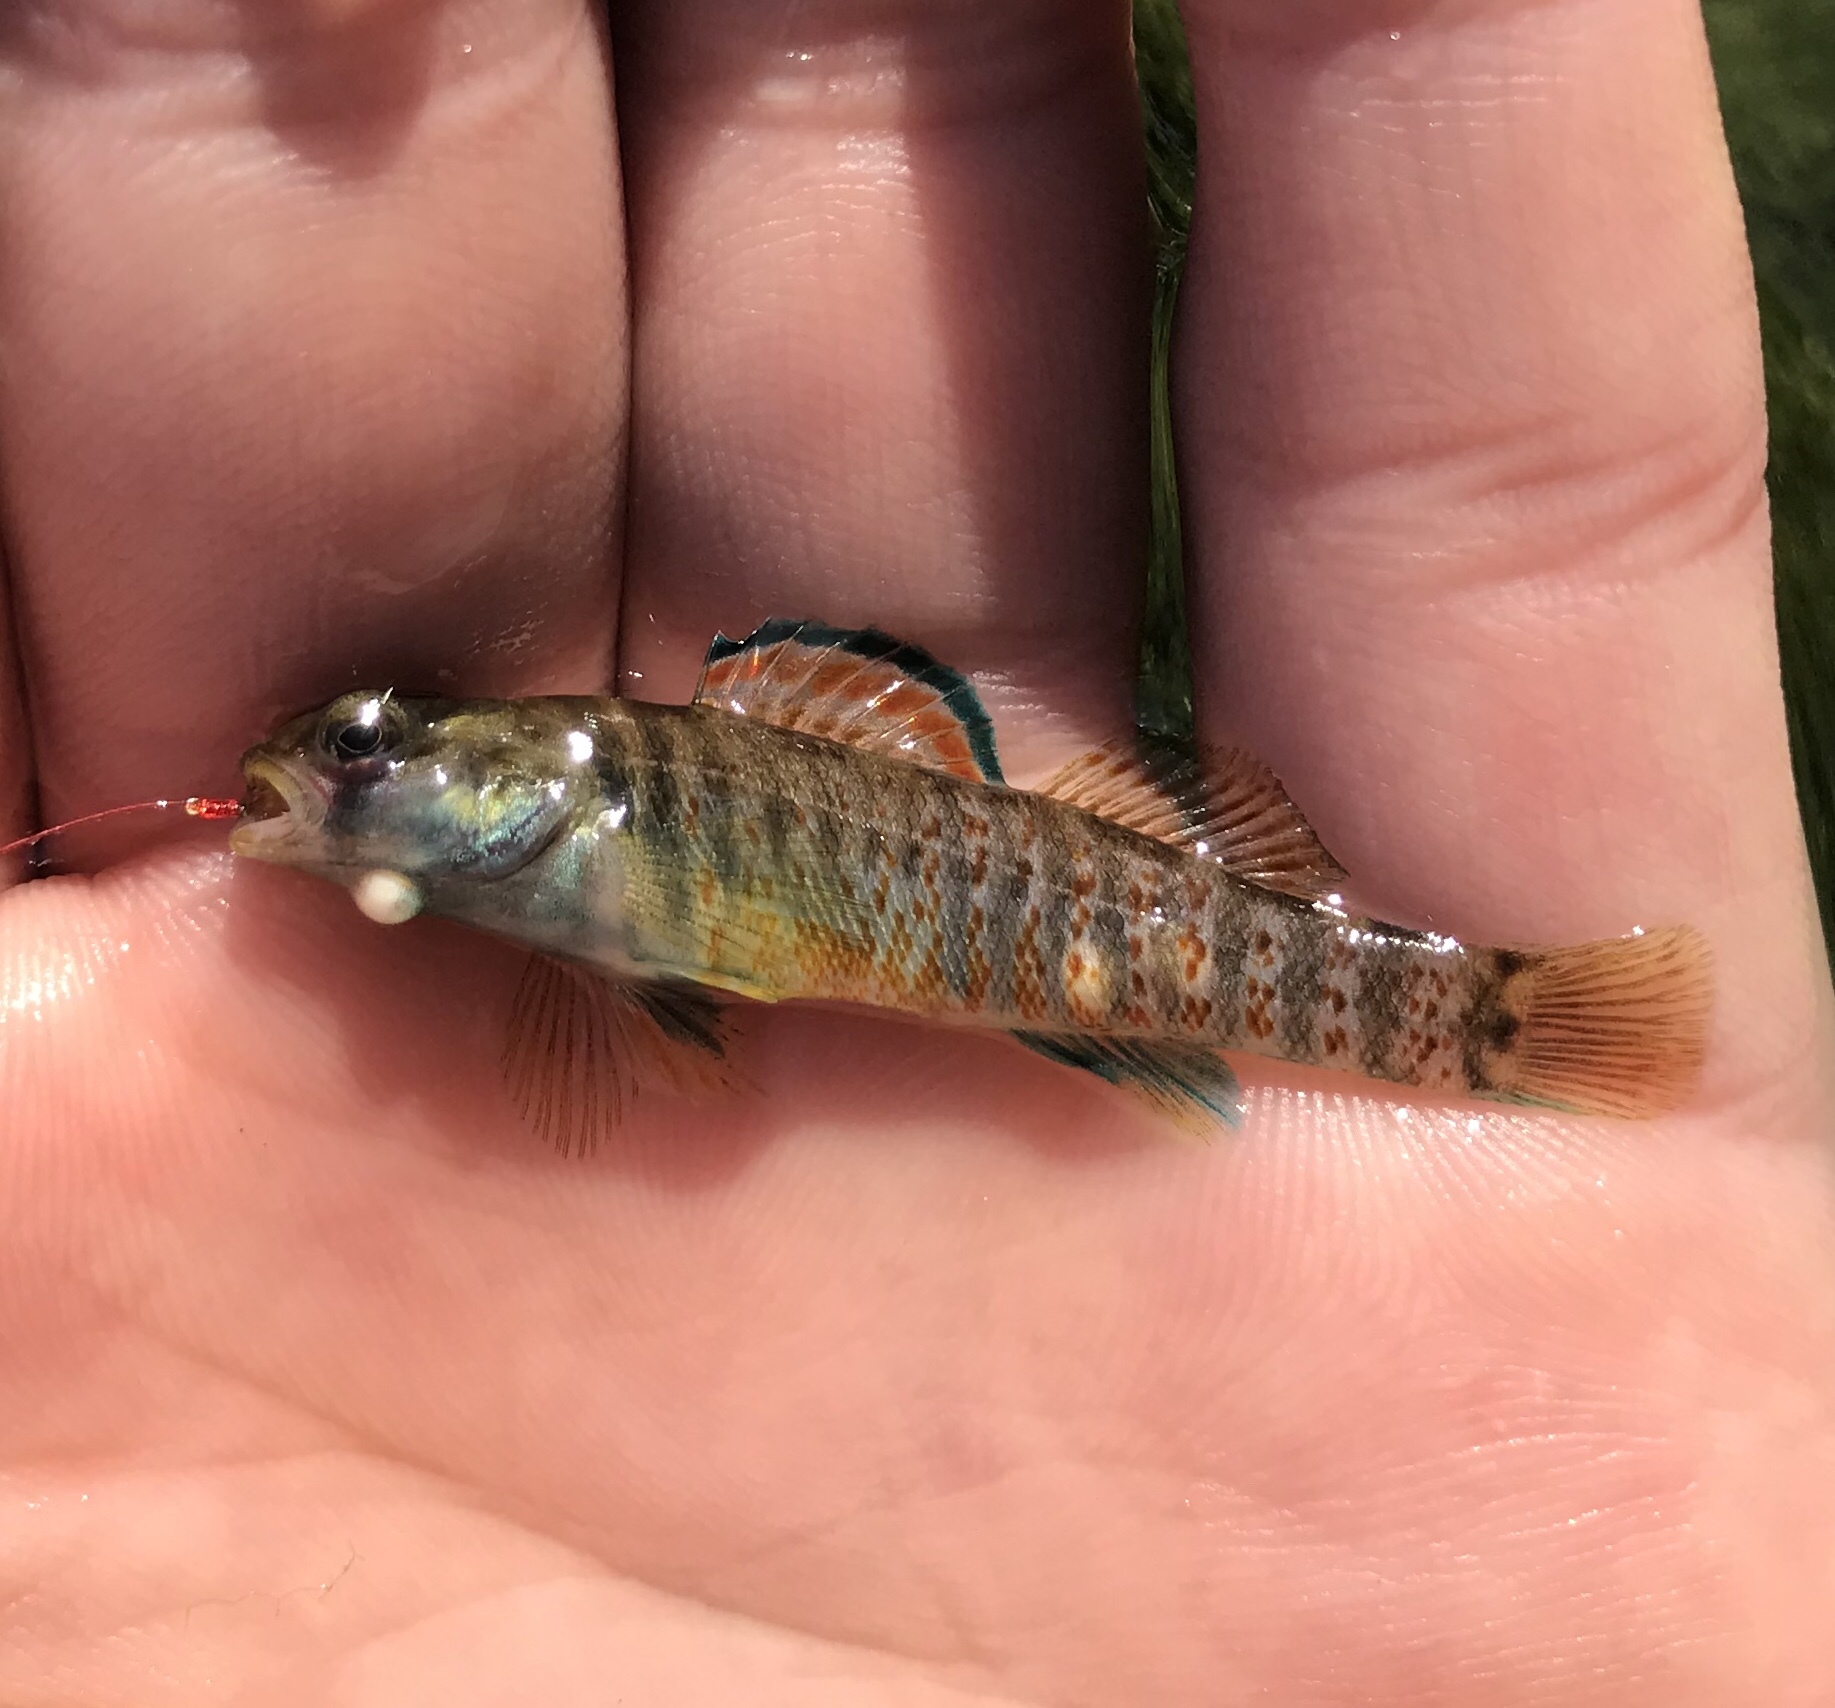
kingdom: Animalia
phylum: Chordata
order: Perciformes
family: Percidae
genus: Etheostoma
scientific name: Etheostoma lepidum
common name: Greenthroat darter
